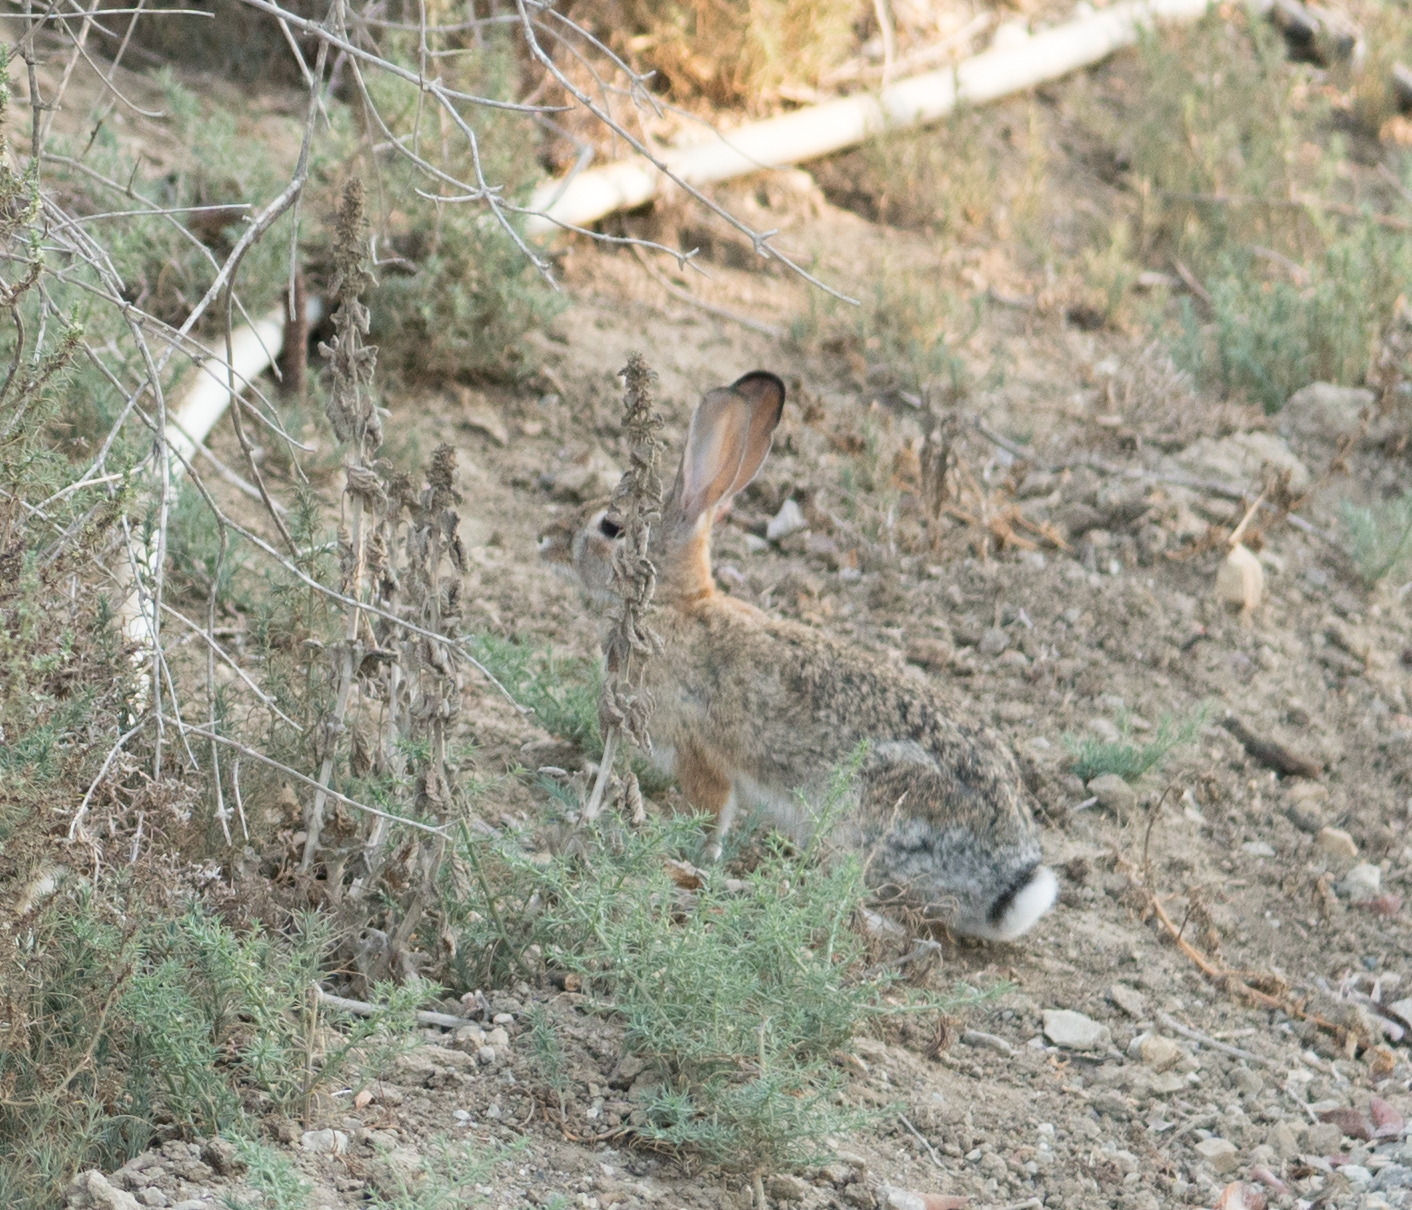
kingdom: Animalia
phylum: Chordata
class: Mammalia
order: Lagomorpha
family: Leporidae
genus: Sylvilagus
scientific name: Sylvilagus audubonii
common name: Desert cottontail
